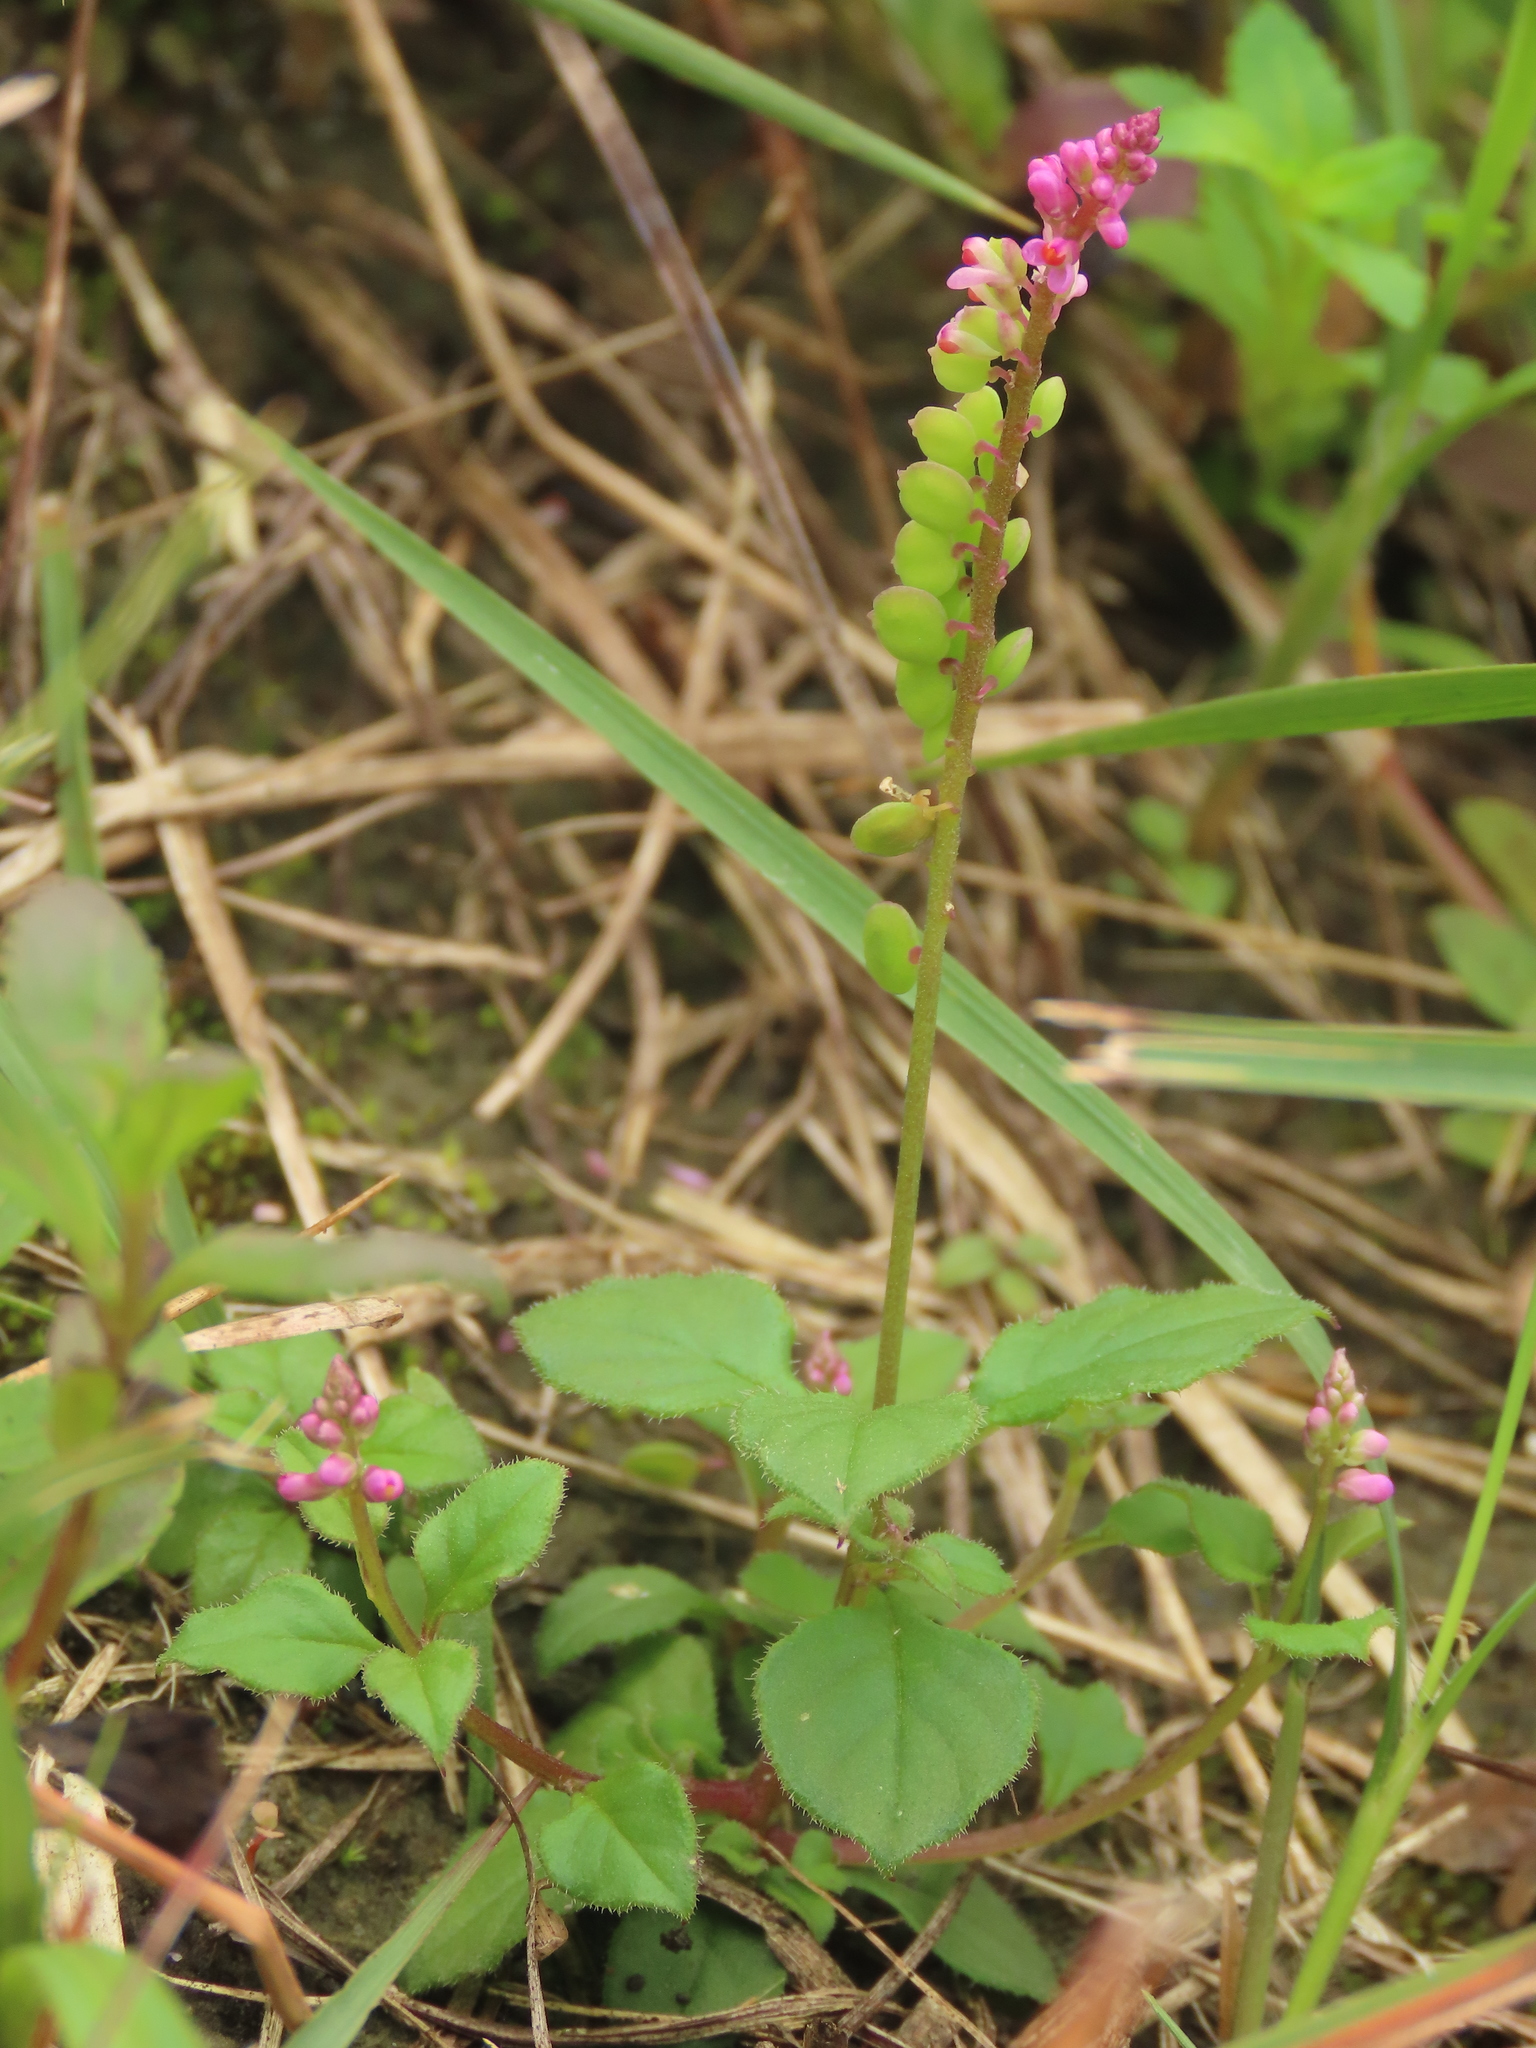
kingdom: Plantae
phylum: Tracheophyta
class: Magnoliopsida
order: Fabales
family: Polygalaceae
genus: Polygala
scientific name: Polygala tatarinowii
